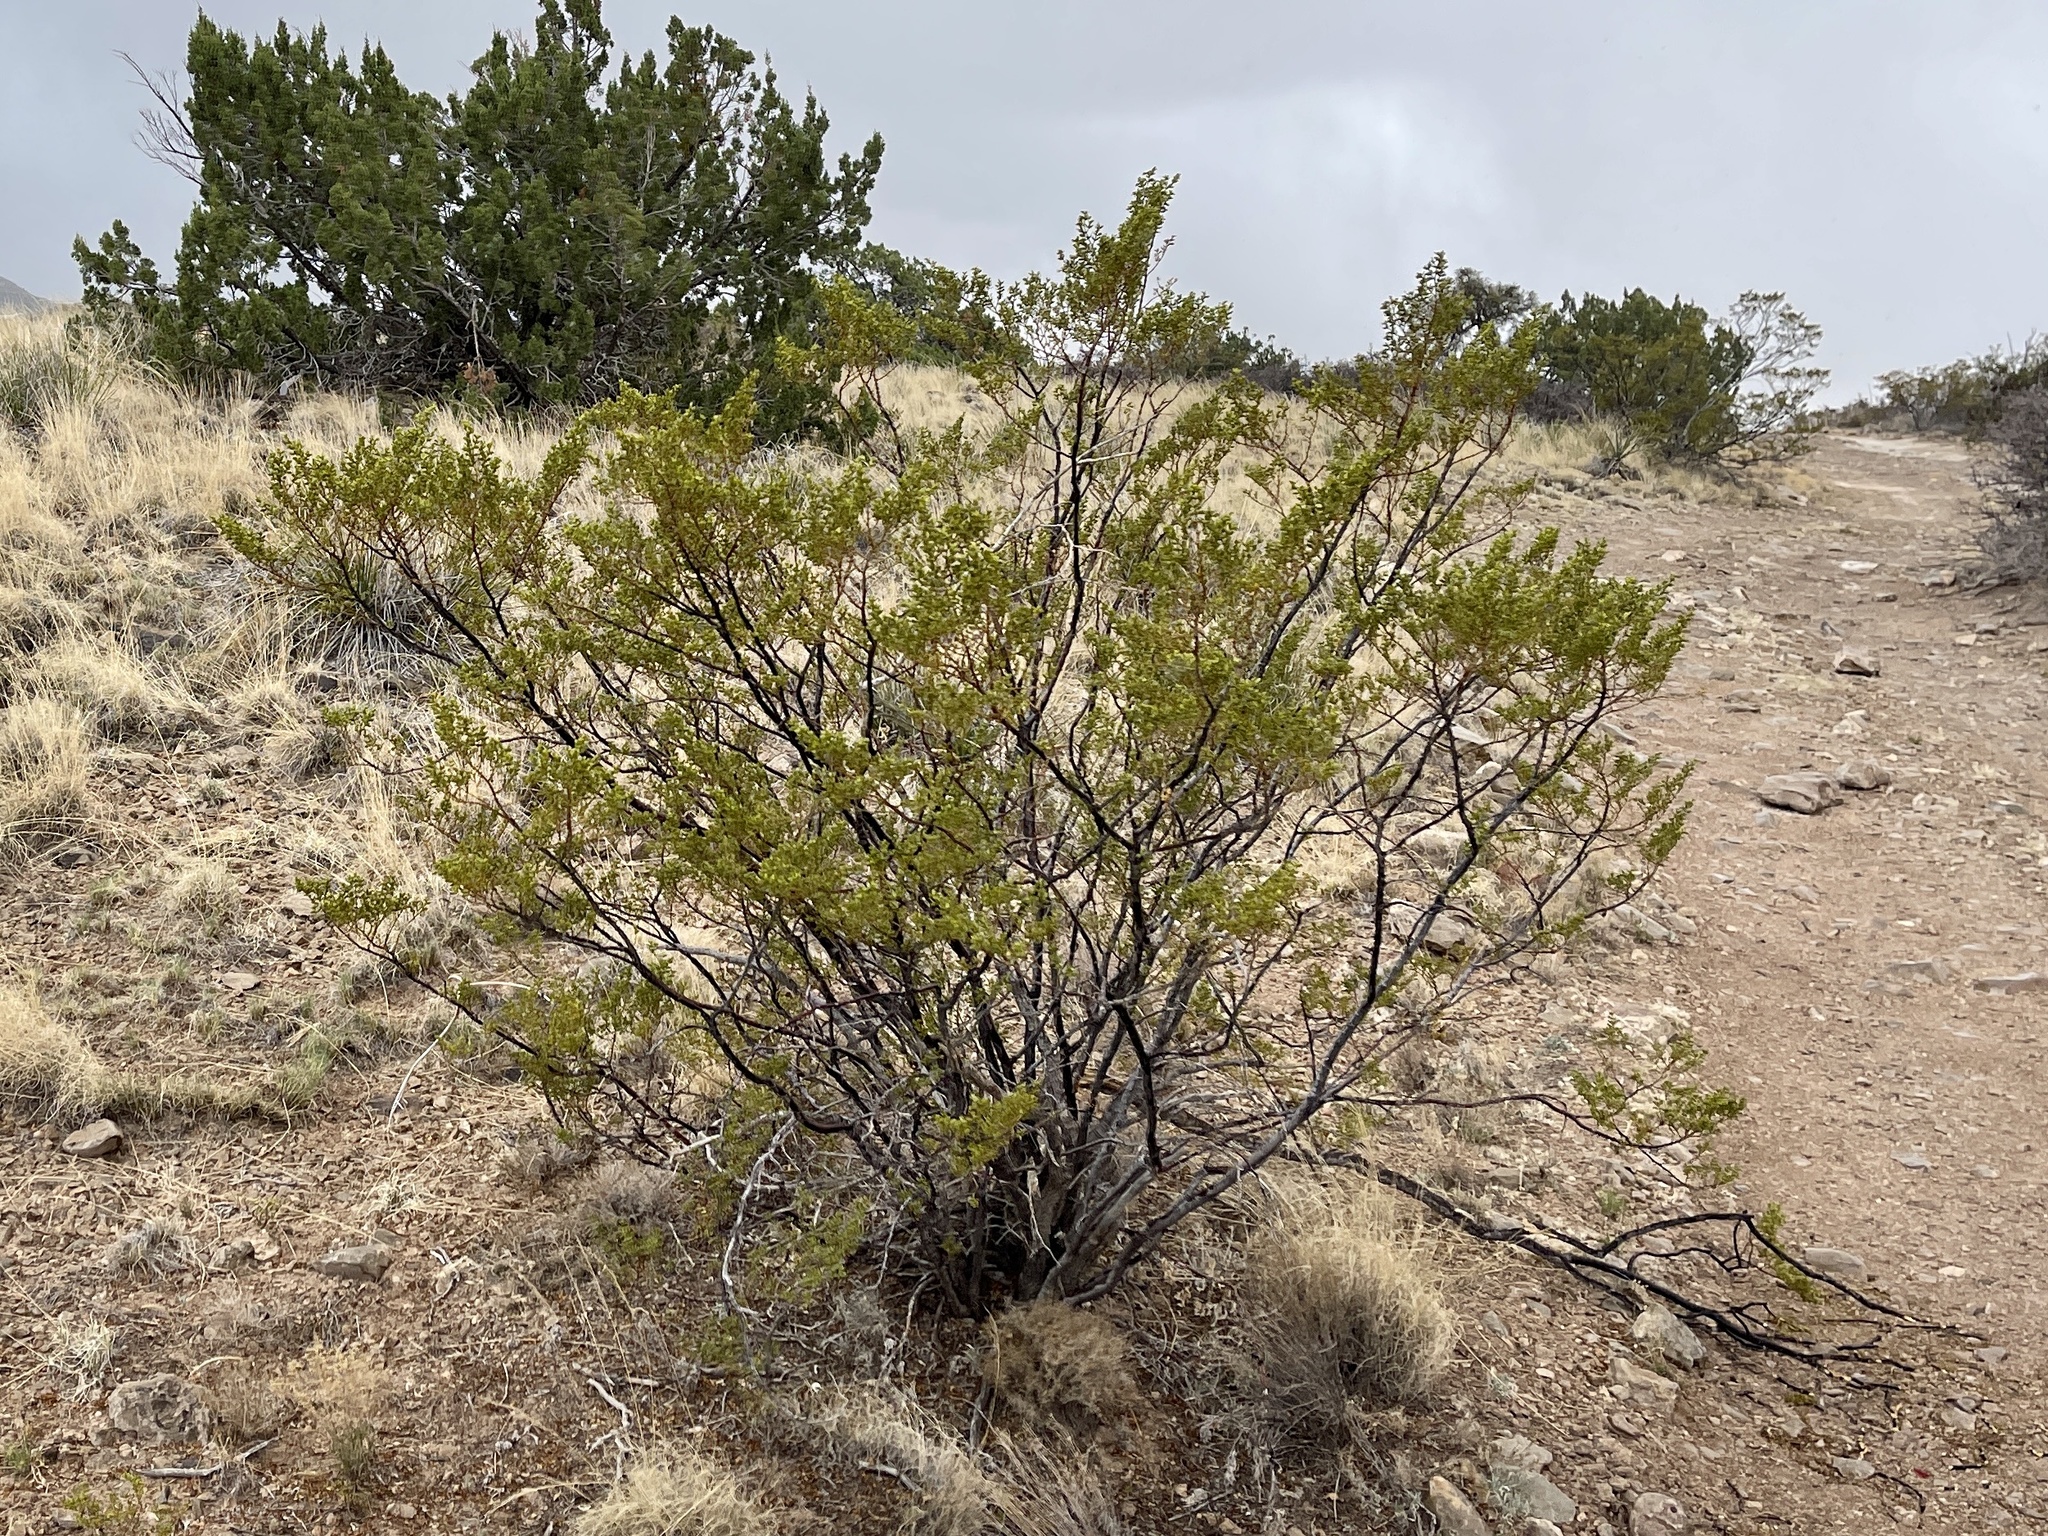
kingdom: Plantae
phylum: Tracheophyta
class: Magnoliopsida
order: Zygophyllales
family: Zygophyllaceae
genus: Larrea
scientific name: Larrea tridentata
